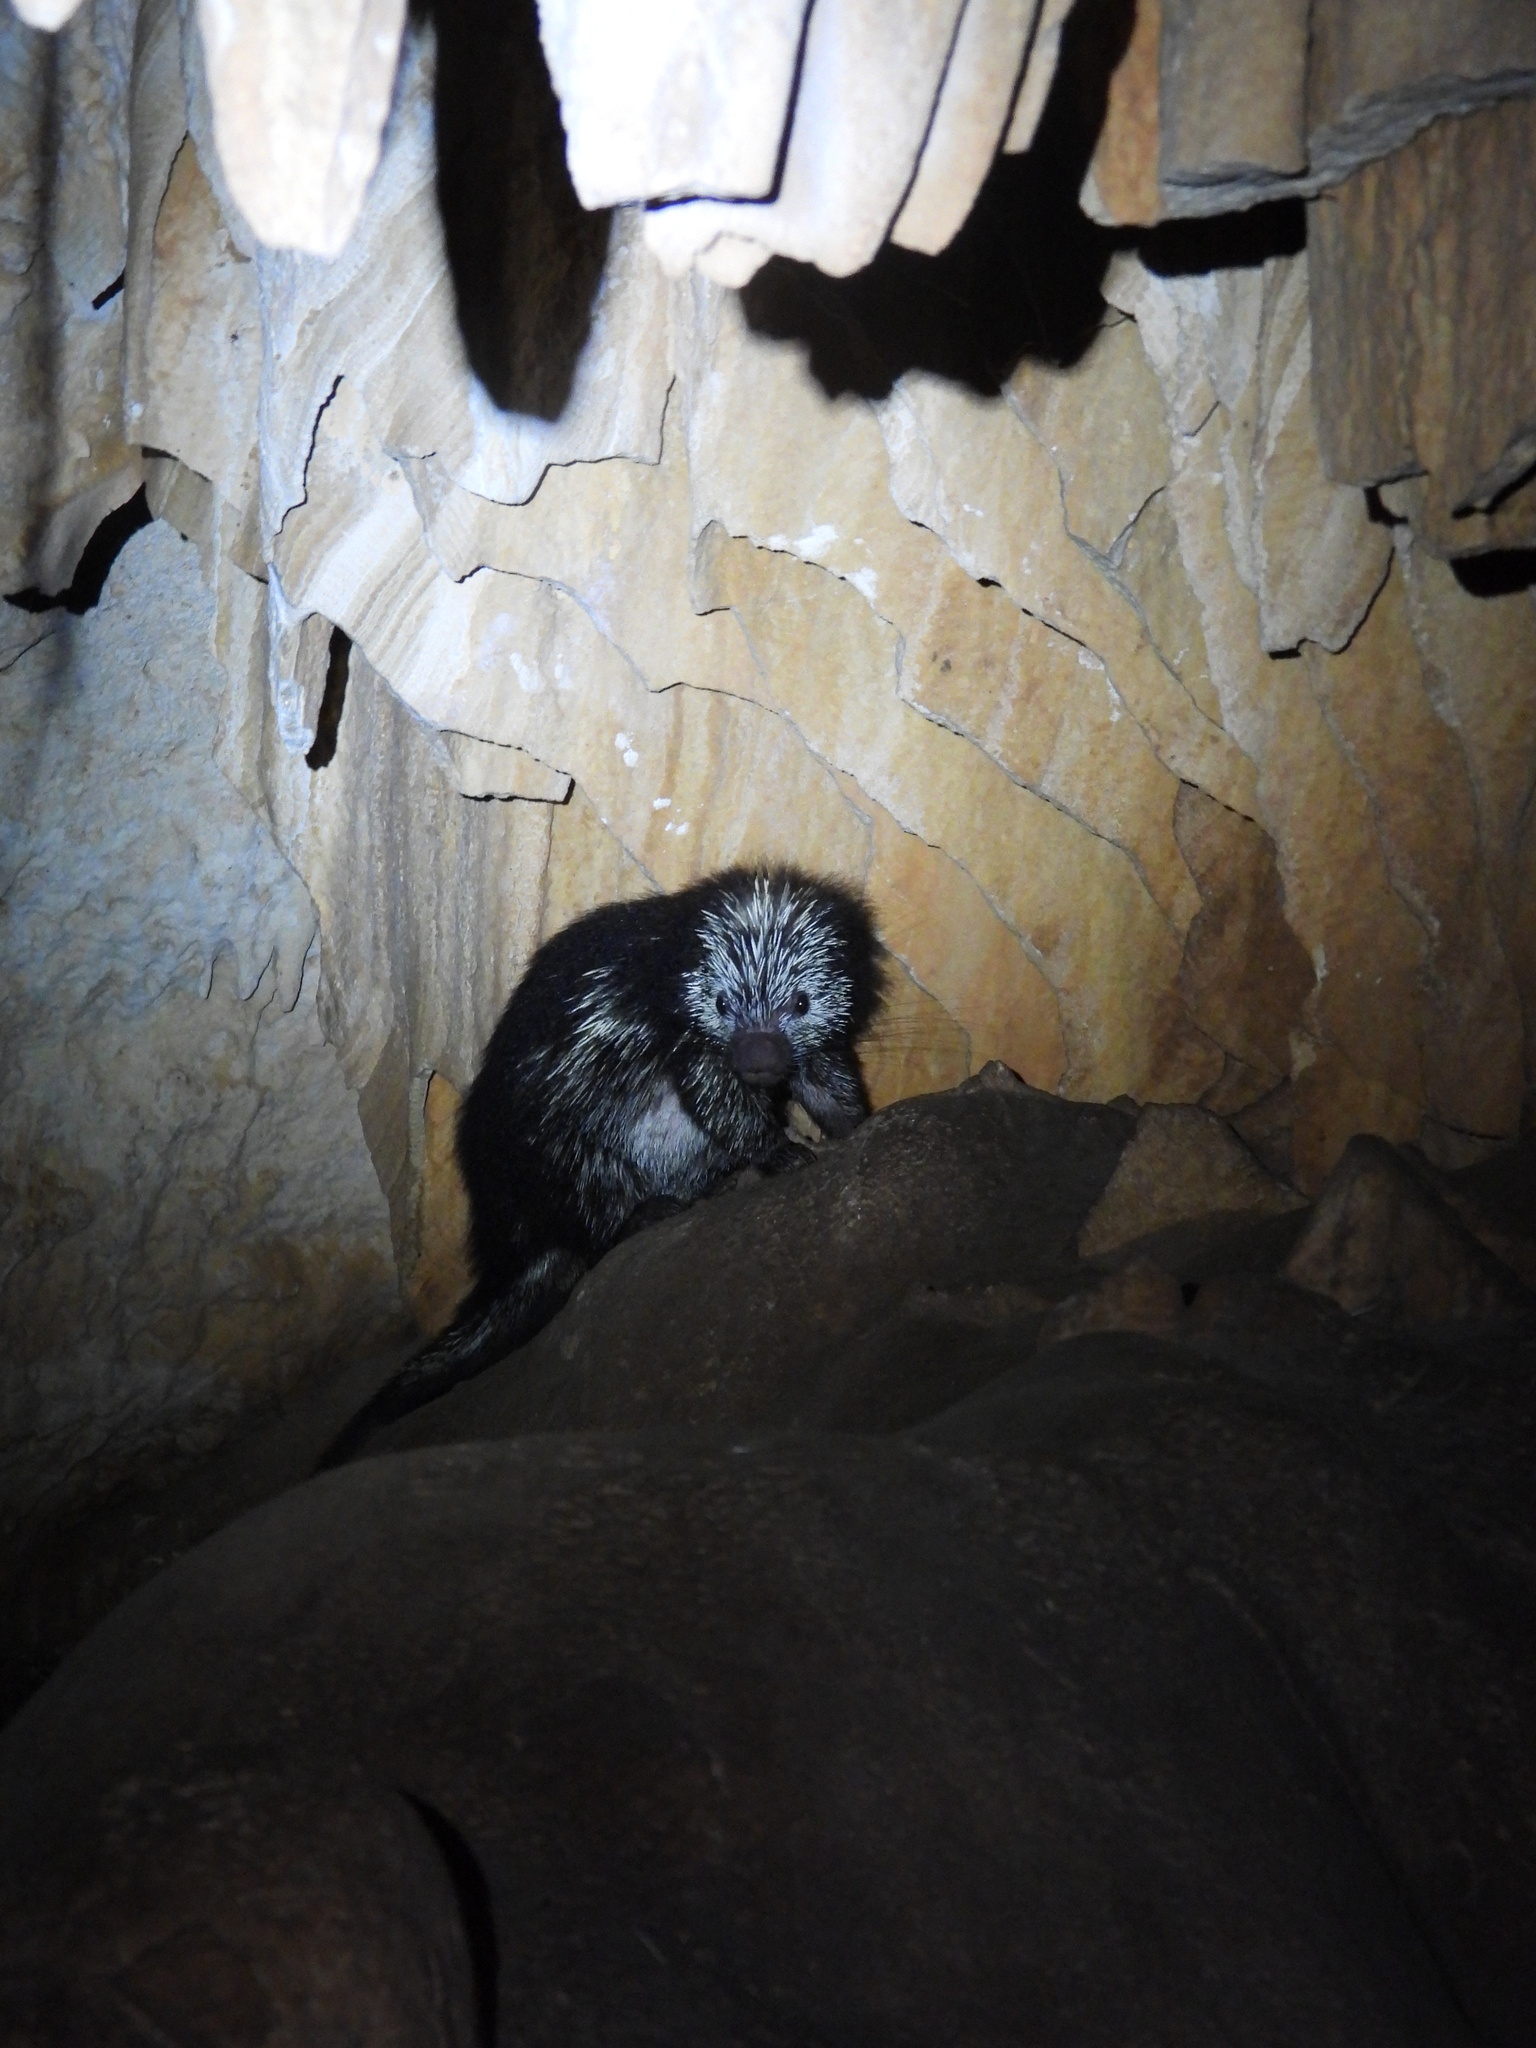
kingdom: Animalia
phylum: Chordata
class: Mammalia
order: Rodentia
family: Erethizontidae
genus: Sphiggurus
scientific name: Sphiggurus mexicanus
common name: Mexican hairy dwarf porcupine
